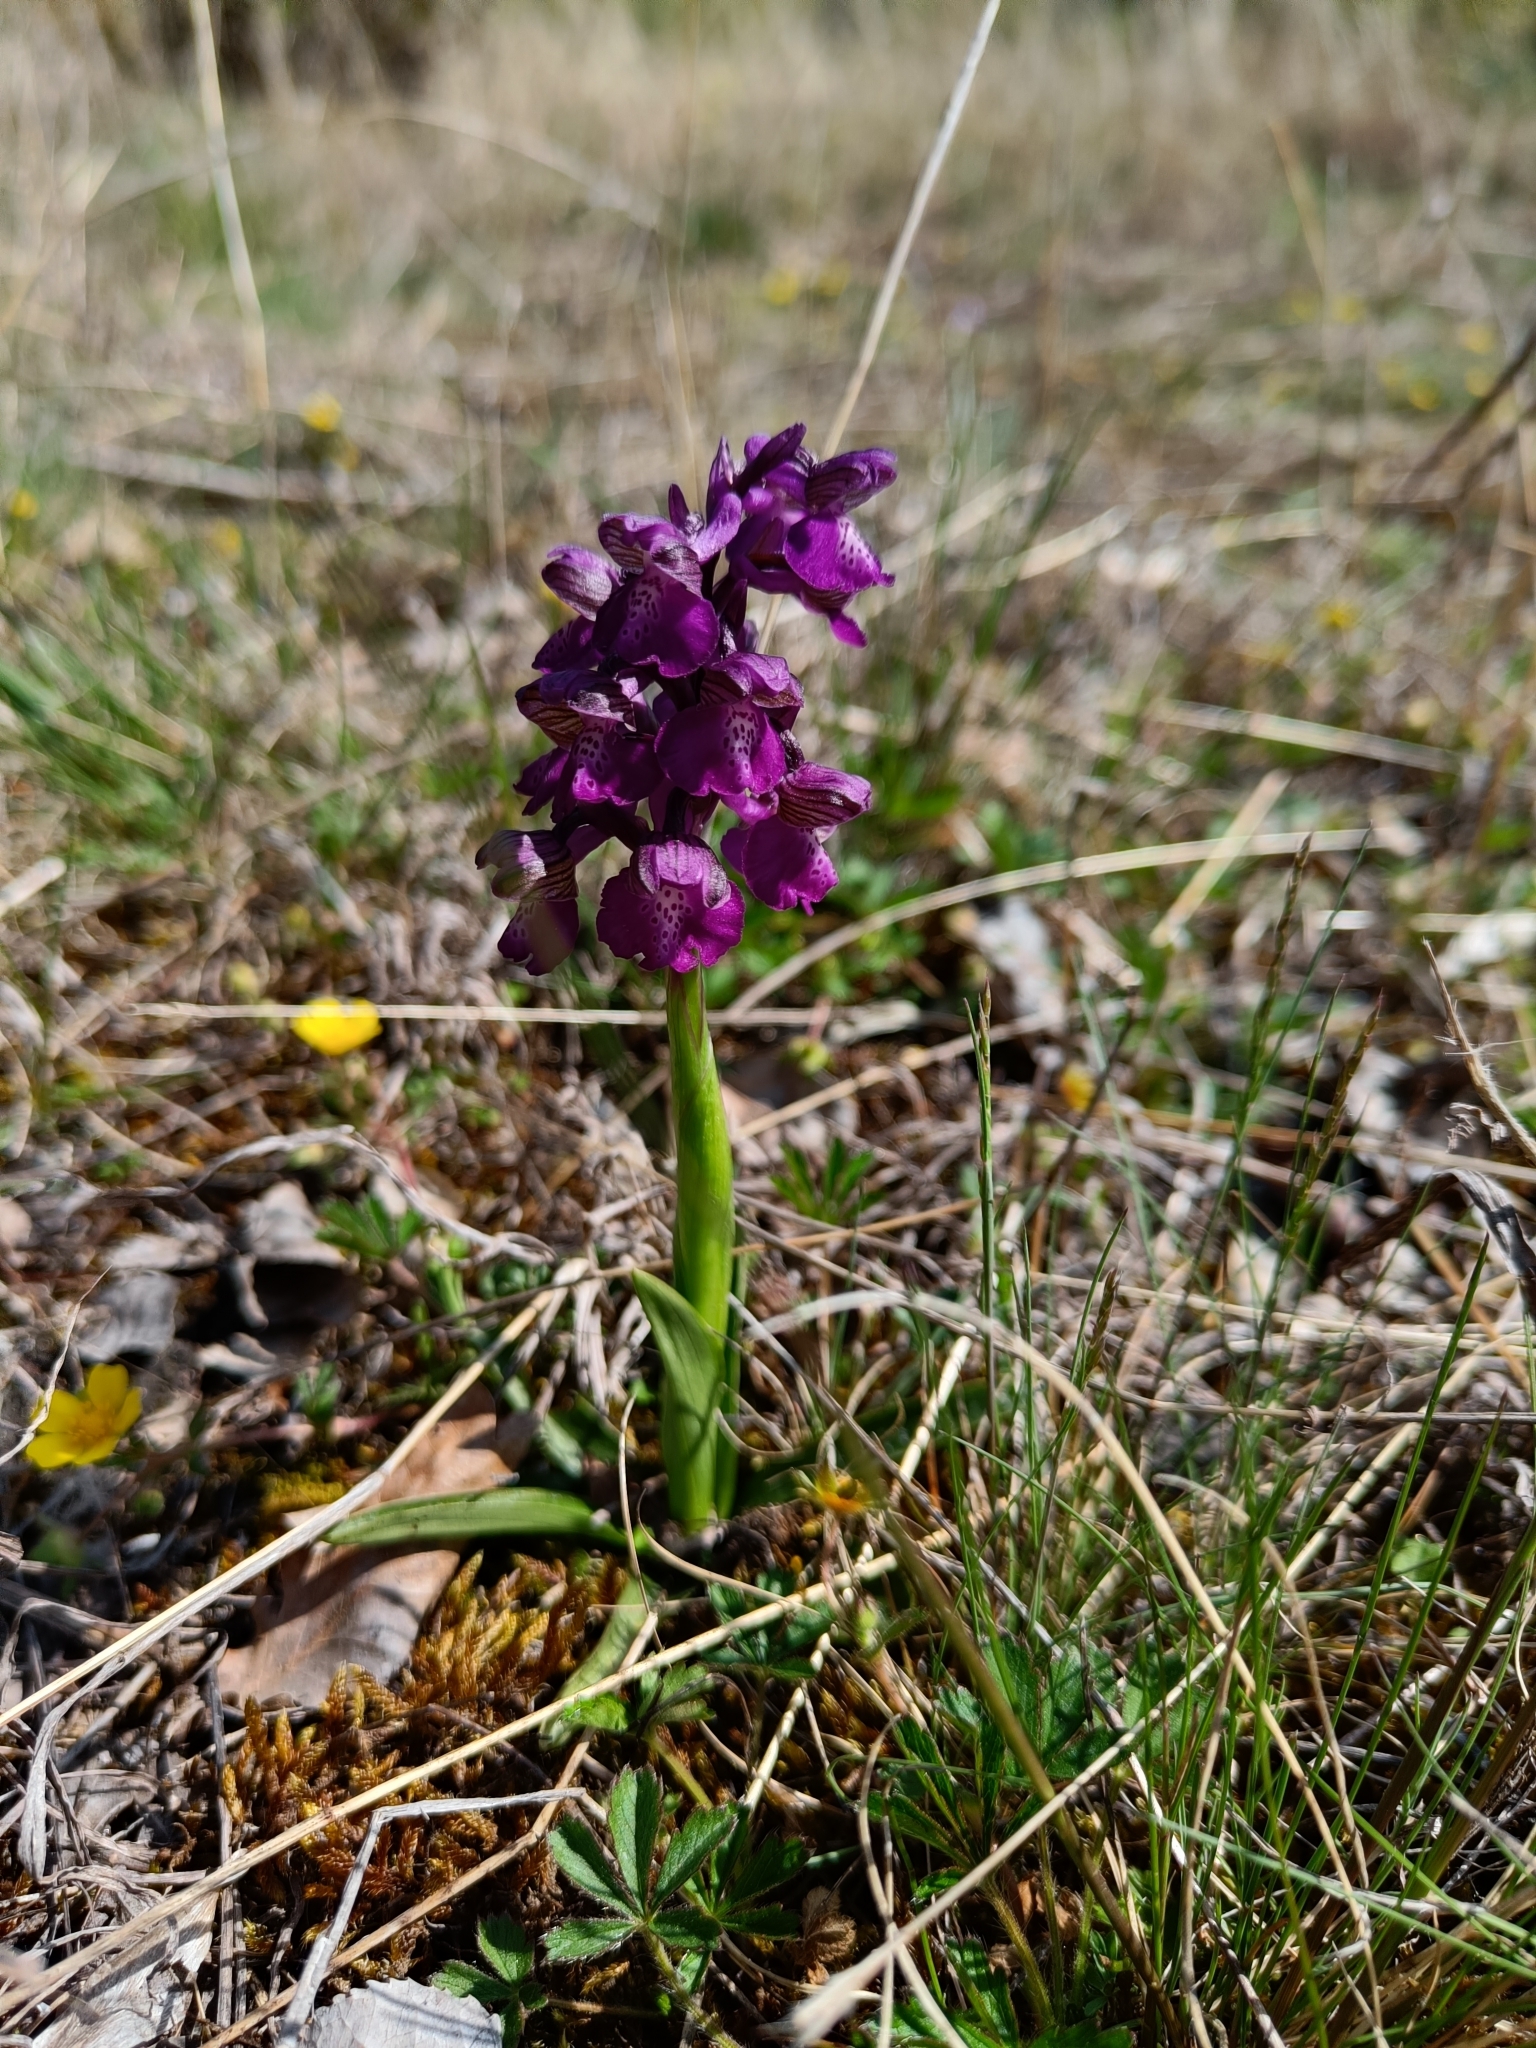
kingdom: Plantae
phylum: Tracheophyta
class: Liliopsida
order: Asparagales
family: Orchidaceae
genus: Anacamptis
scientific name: Anacamptis morio
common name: Green-winged orchid
